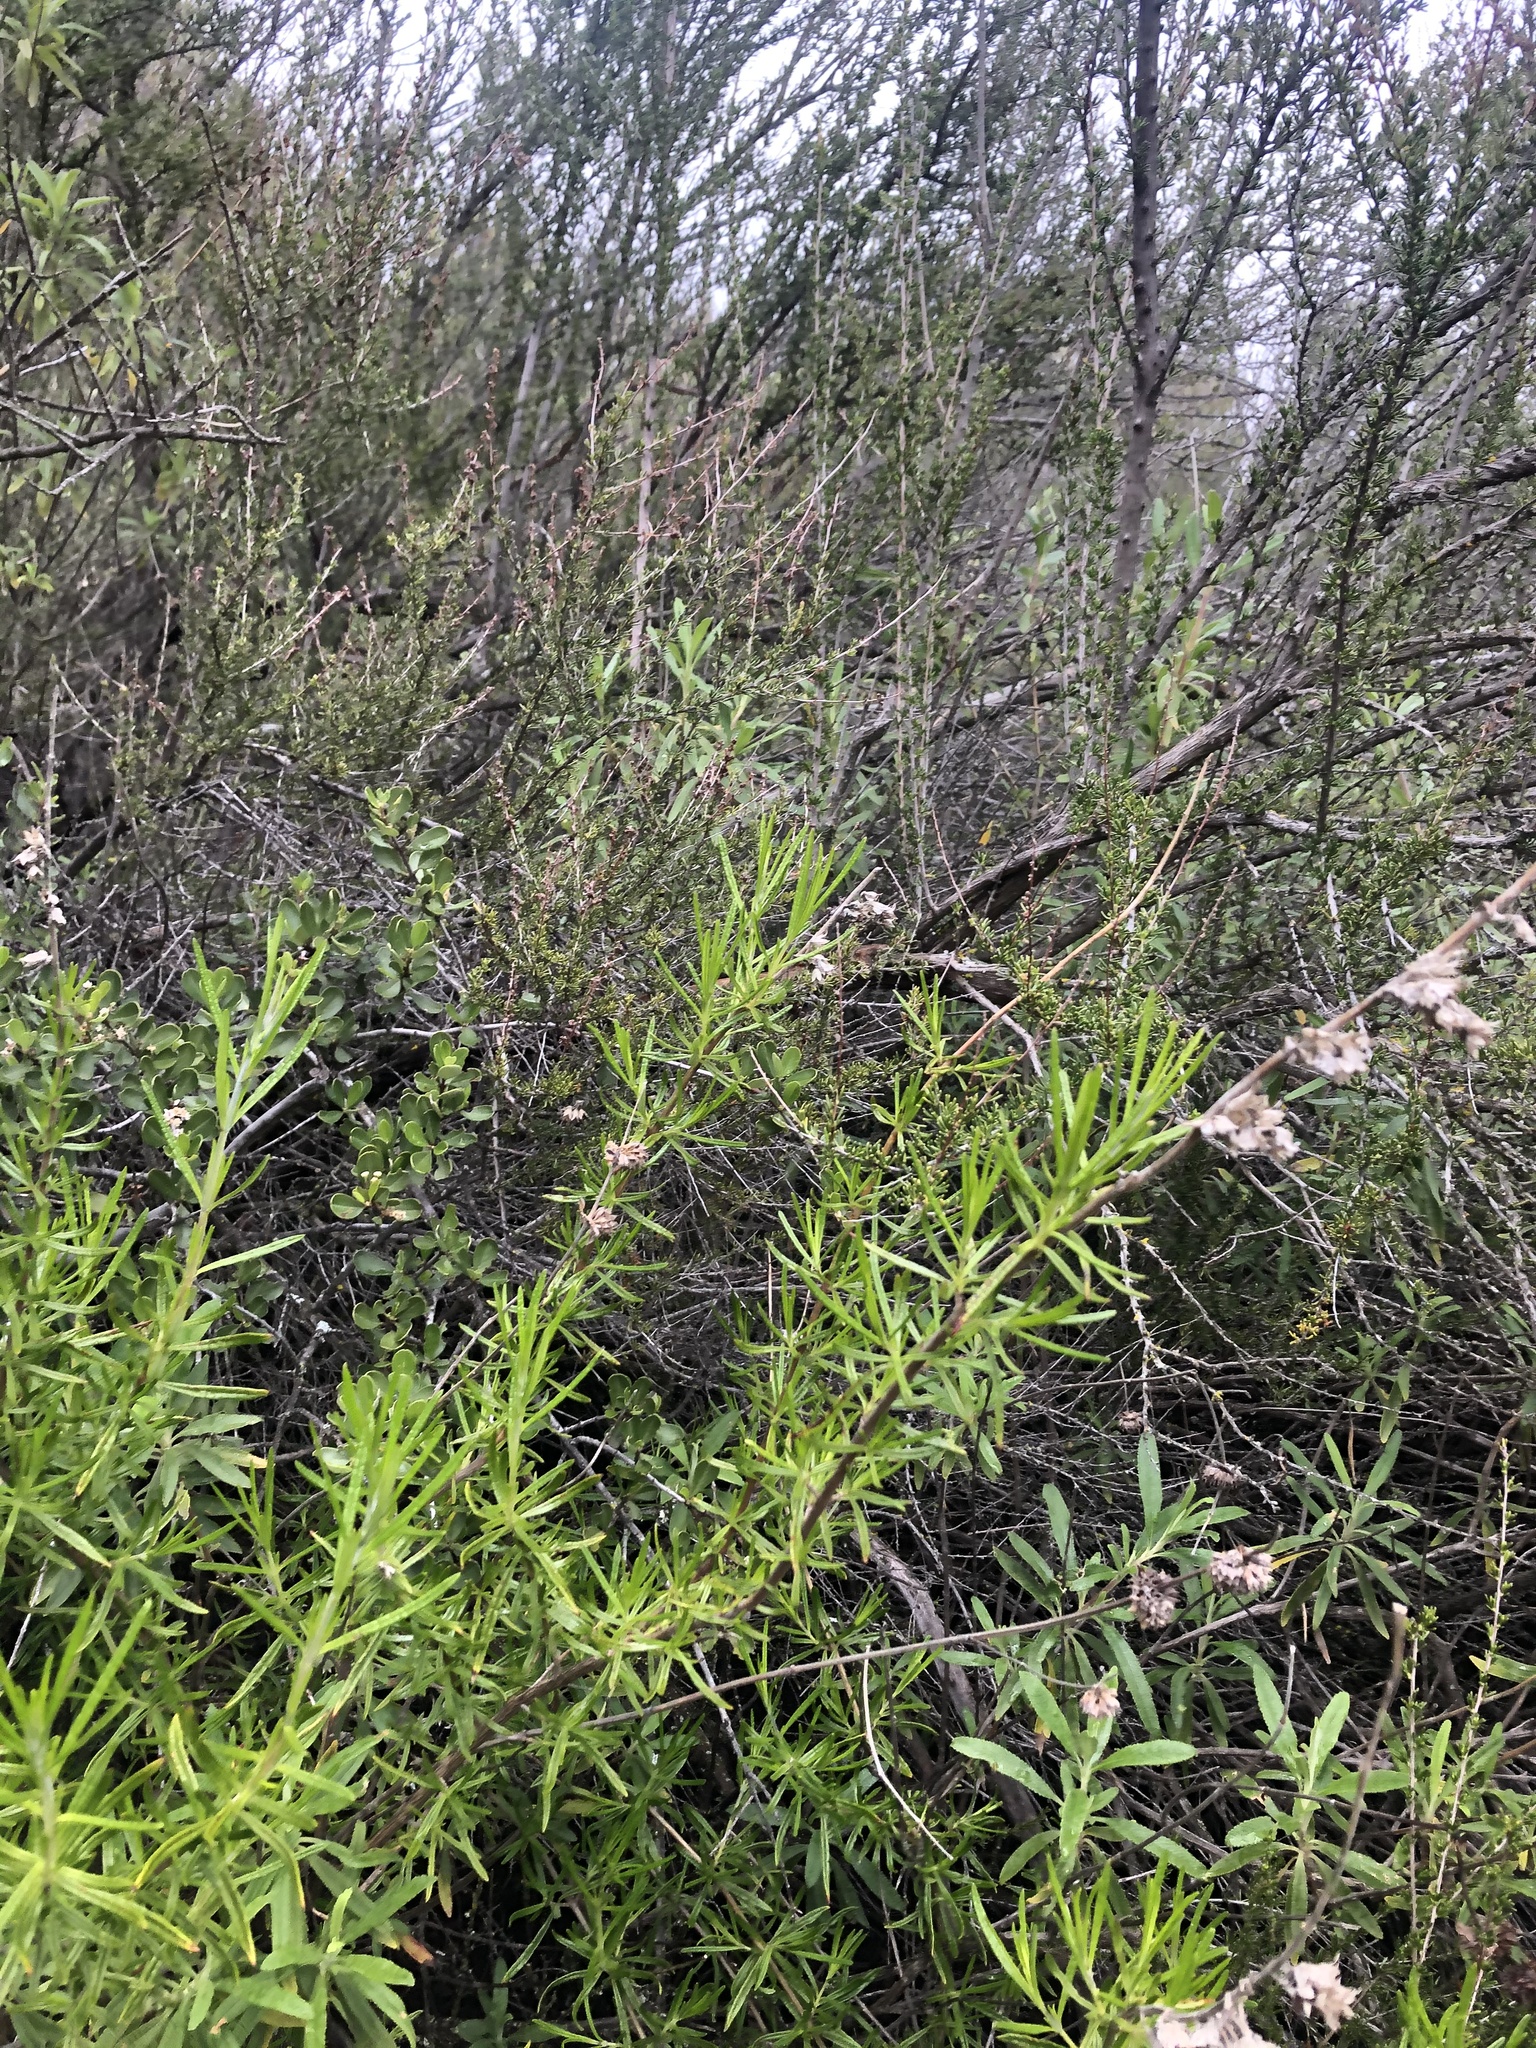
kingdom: Plantae
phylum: Tracheophyta
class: Magnoliopsida
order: Lamiales
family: Lamiaceae
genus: Trichostema
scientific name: Trichostema lanatum
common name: Woolly bluecurls
